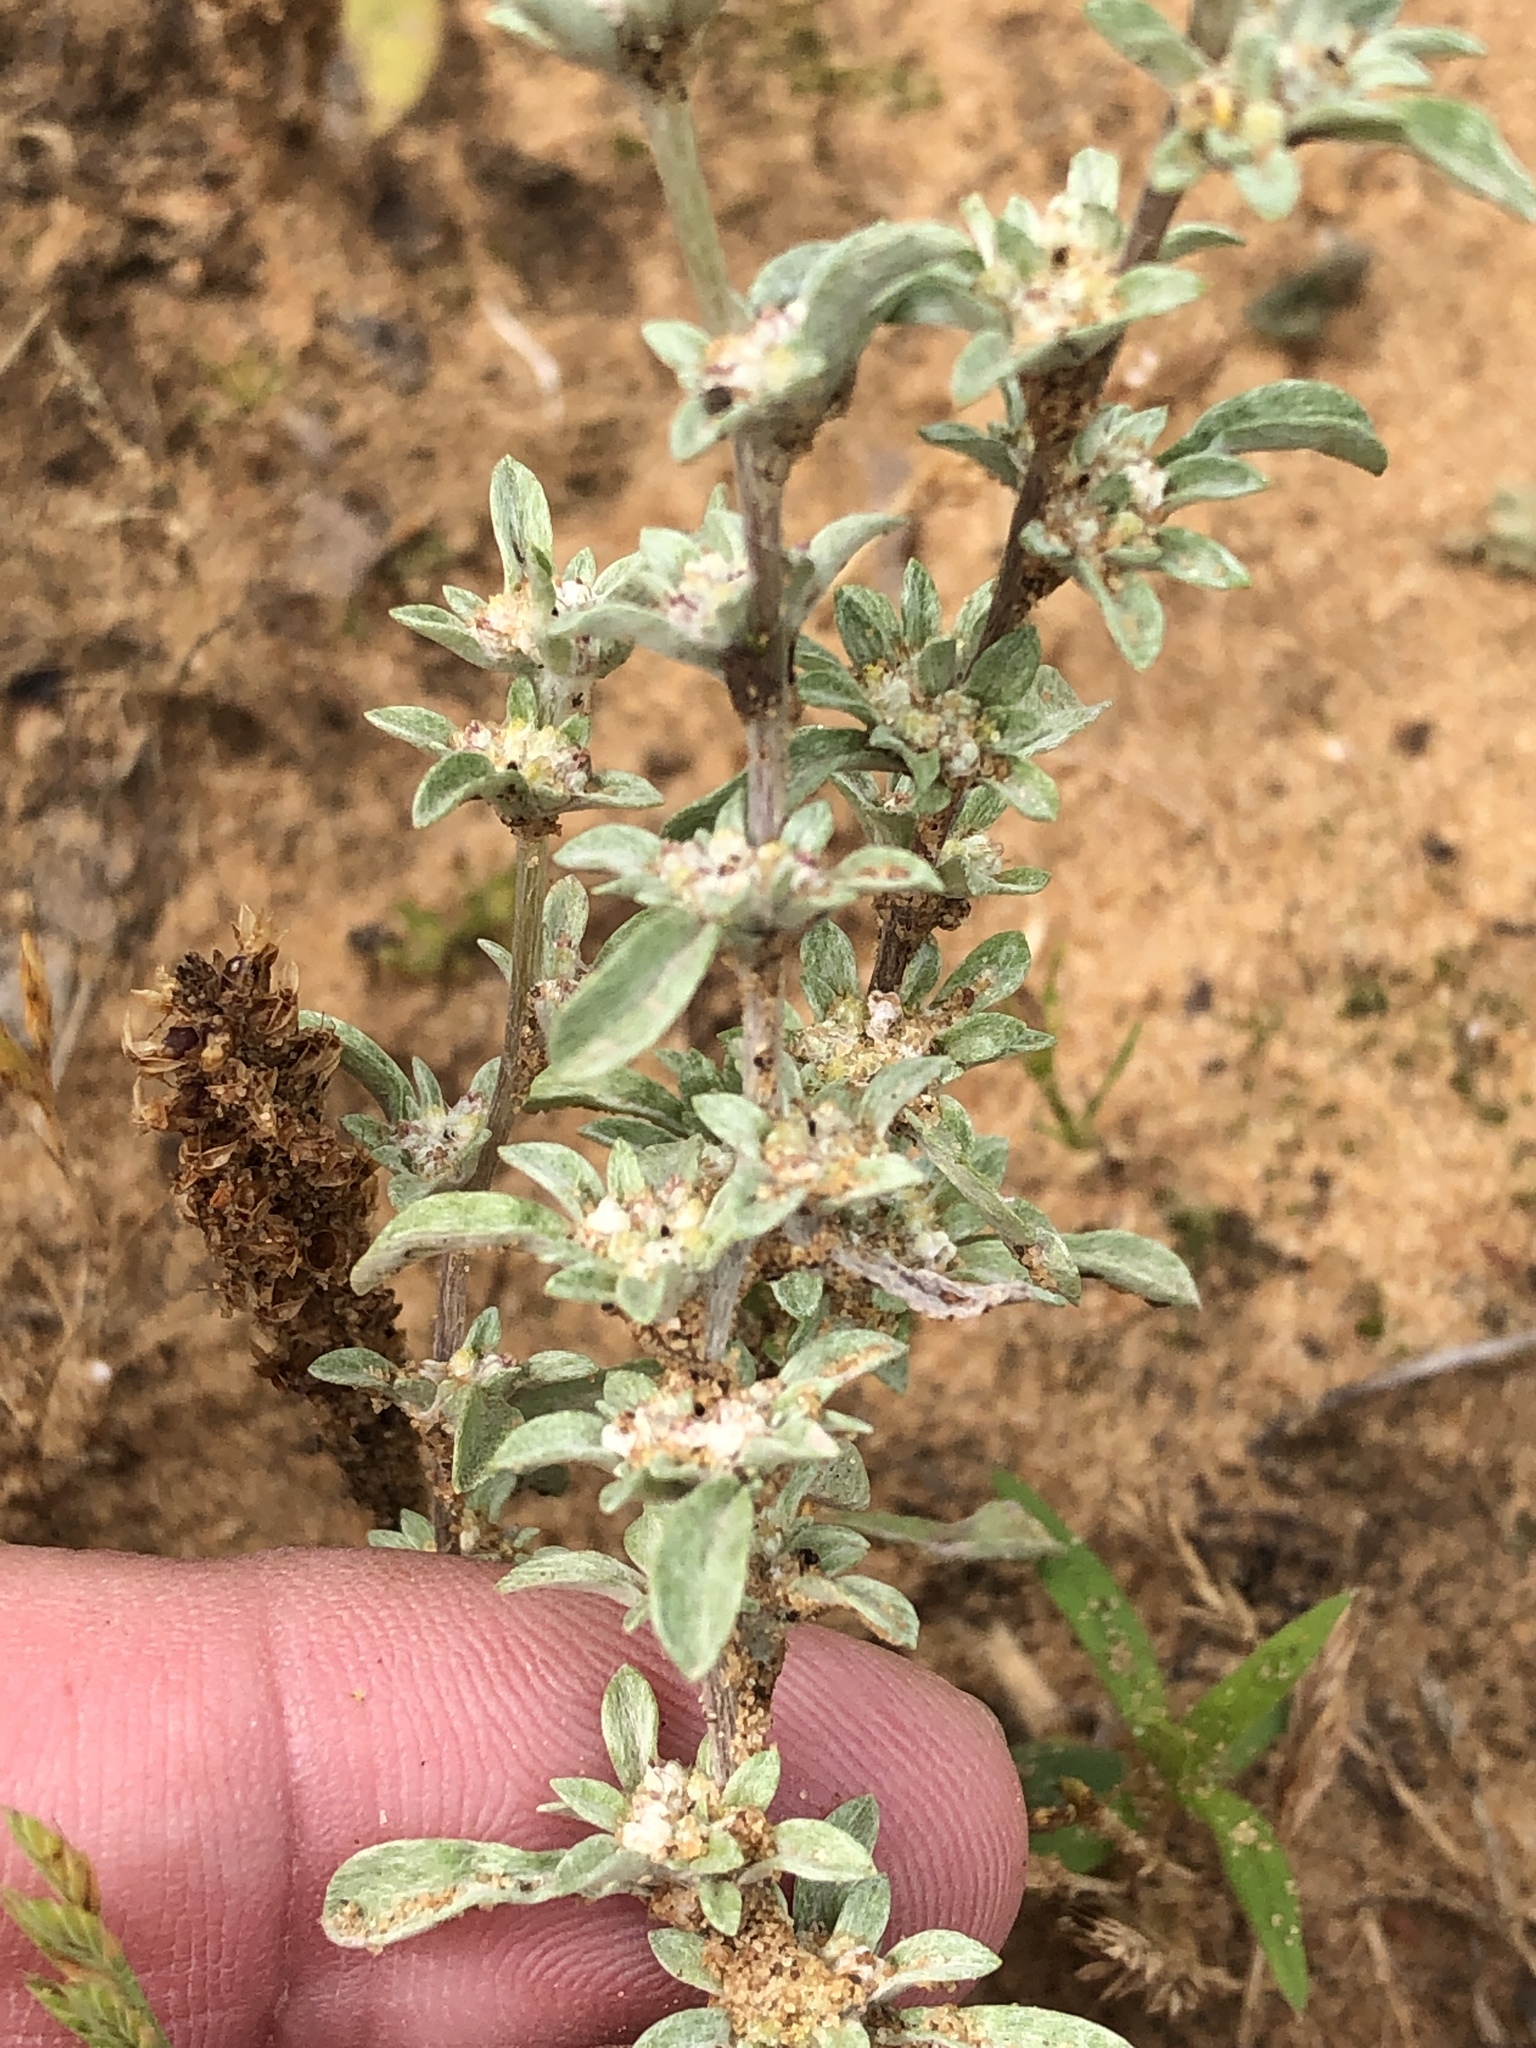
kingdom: Plantae
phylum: Tracheophyta
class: Magnoliopsida
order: Asterales
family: Asteraceae
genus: Diaperia
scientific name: Diaperia candida
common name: Silver rabbit-tobacco
